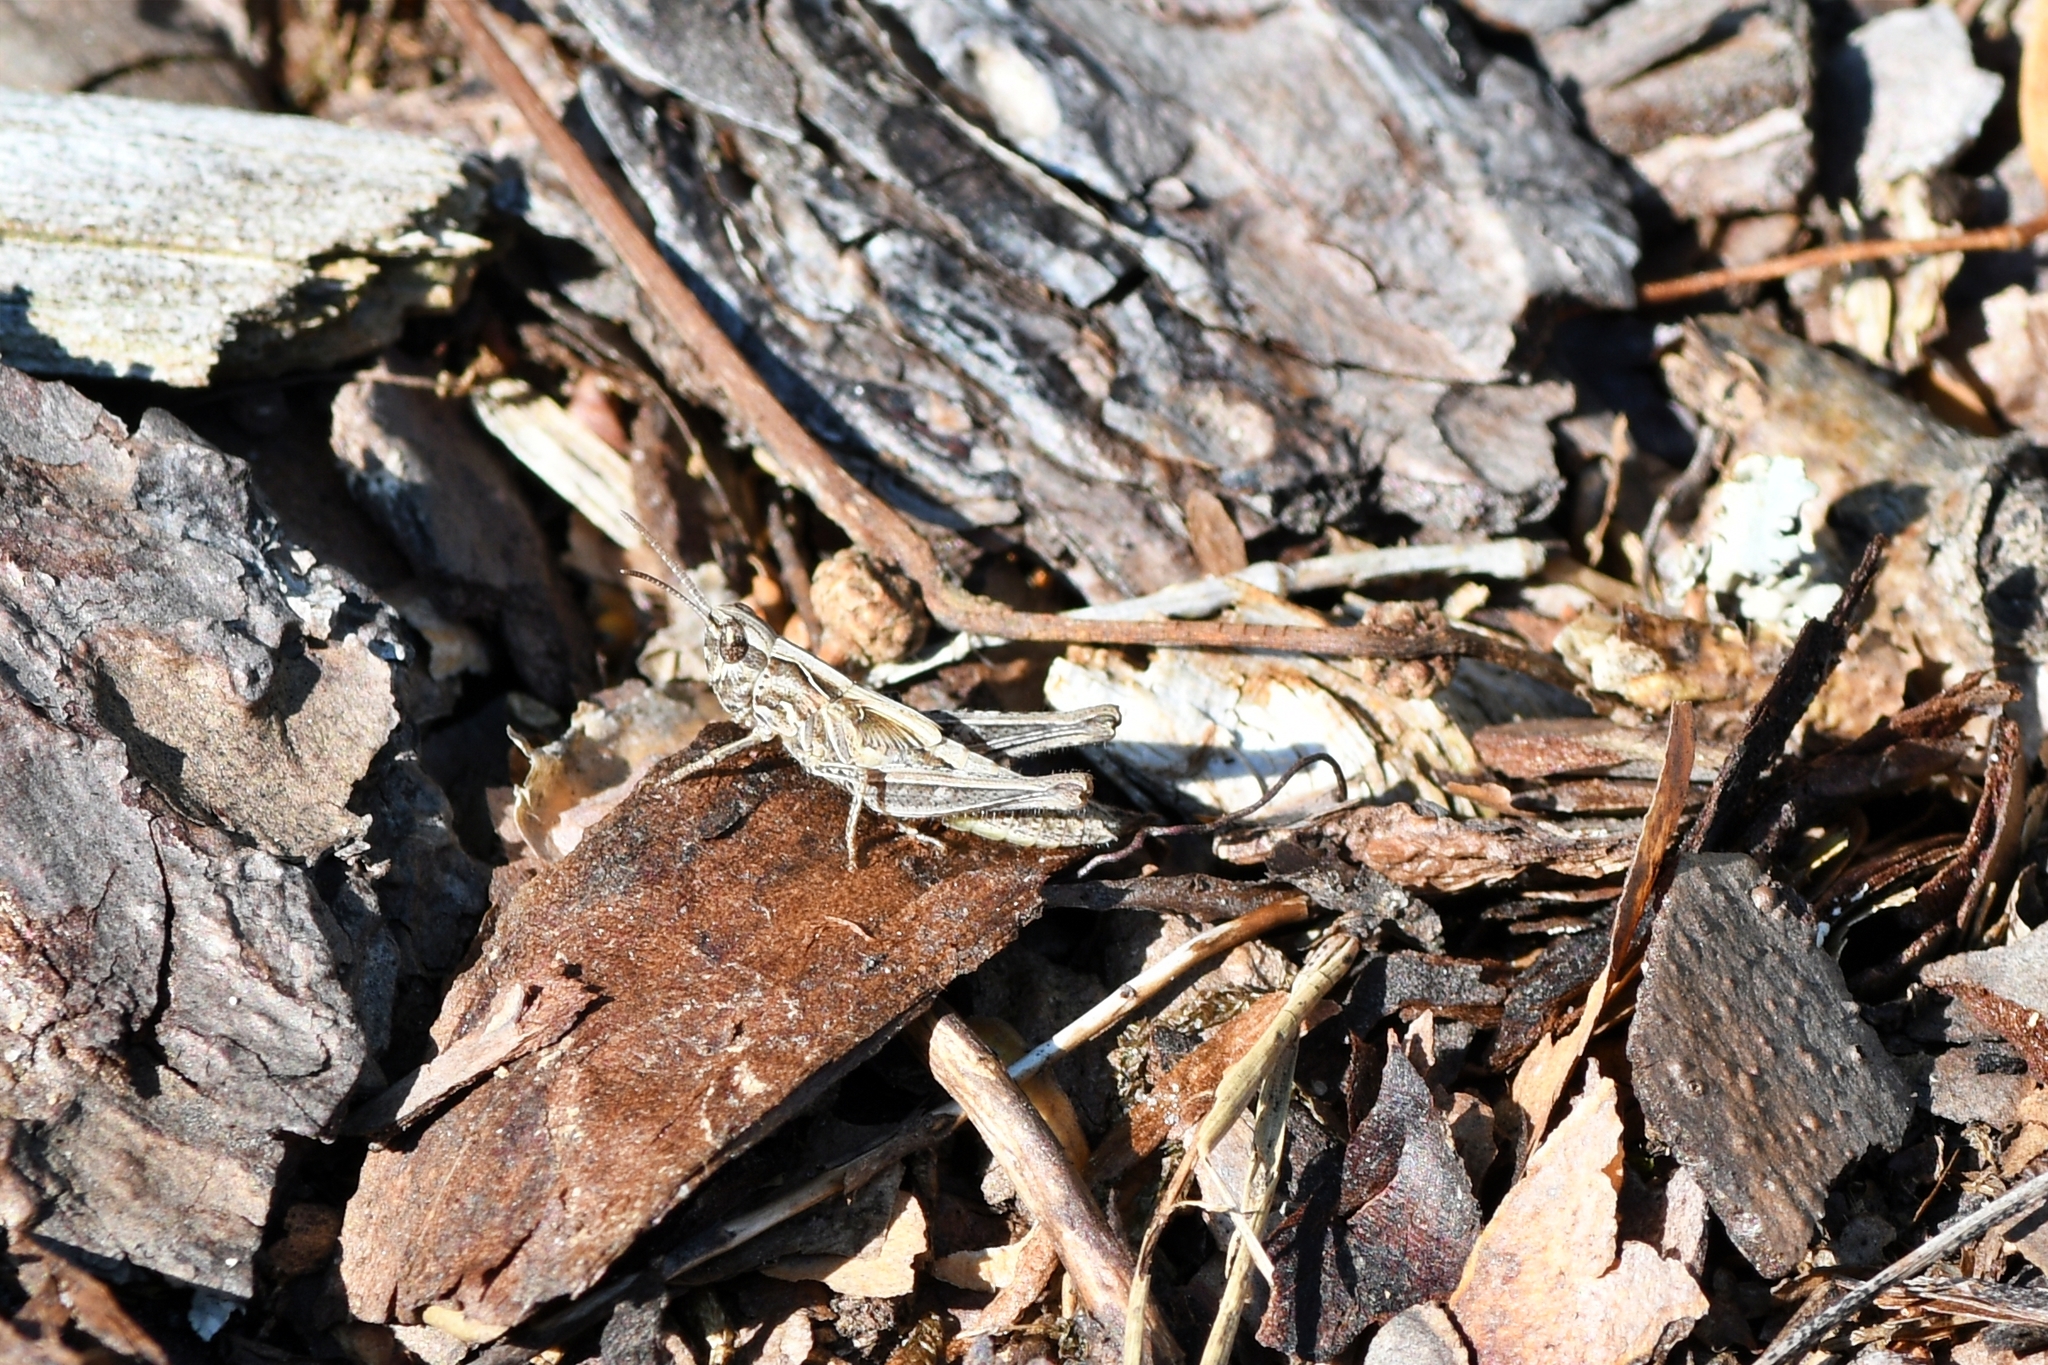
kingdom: Animalia
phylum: Arthropoda
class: Insecta
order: Orthoptera
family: Acrididae
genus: Glyptobothrus
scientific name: Glyptobothrus
